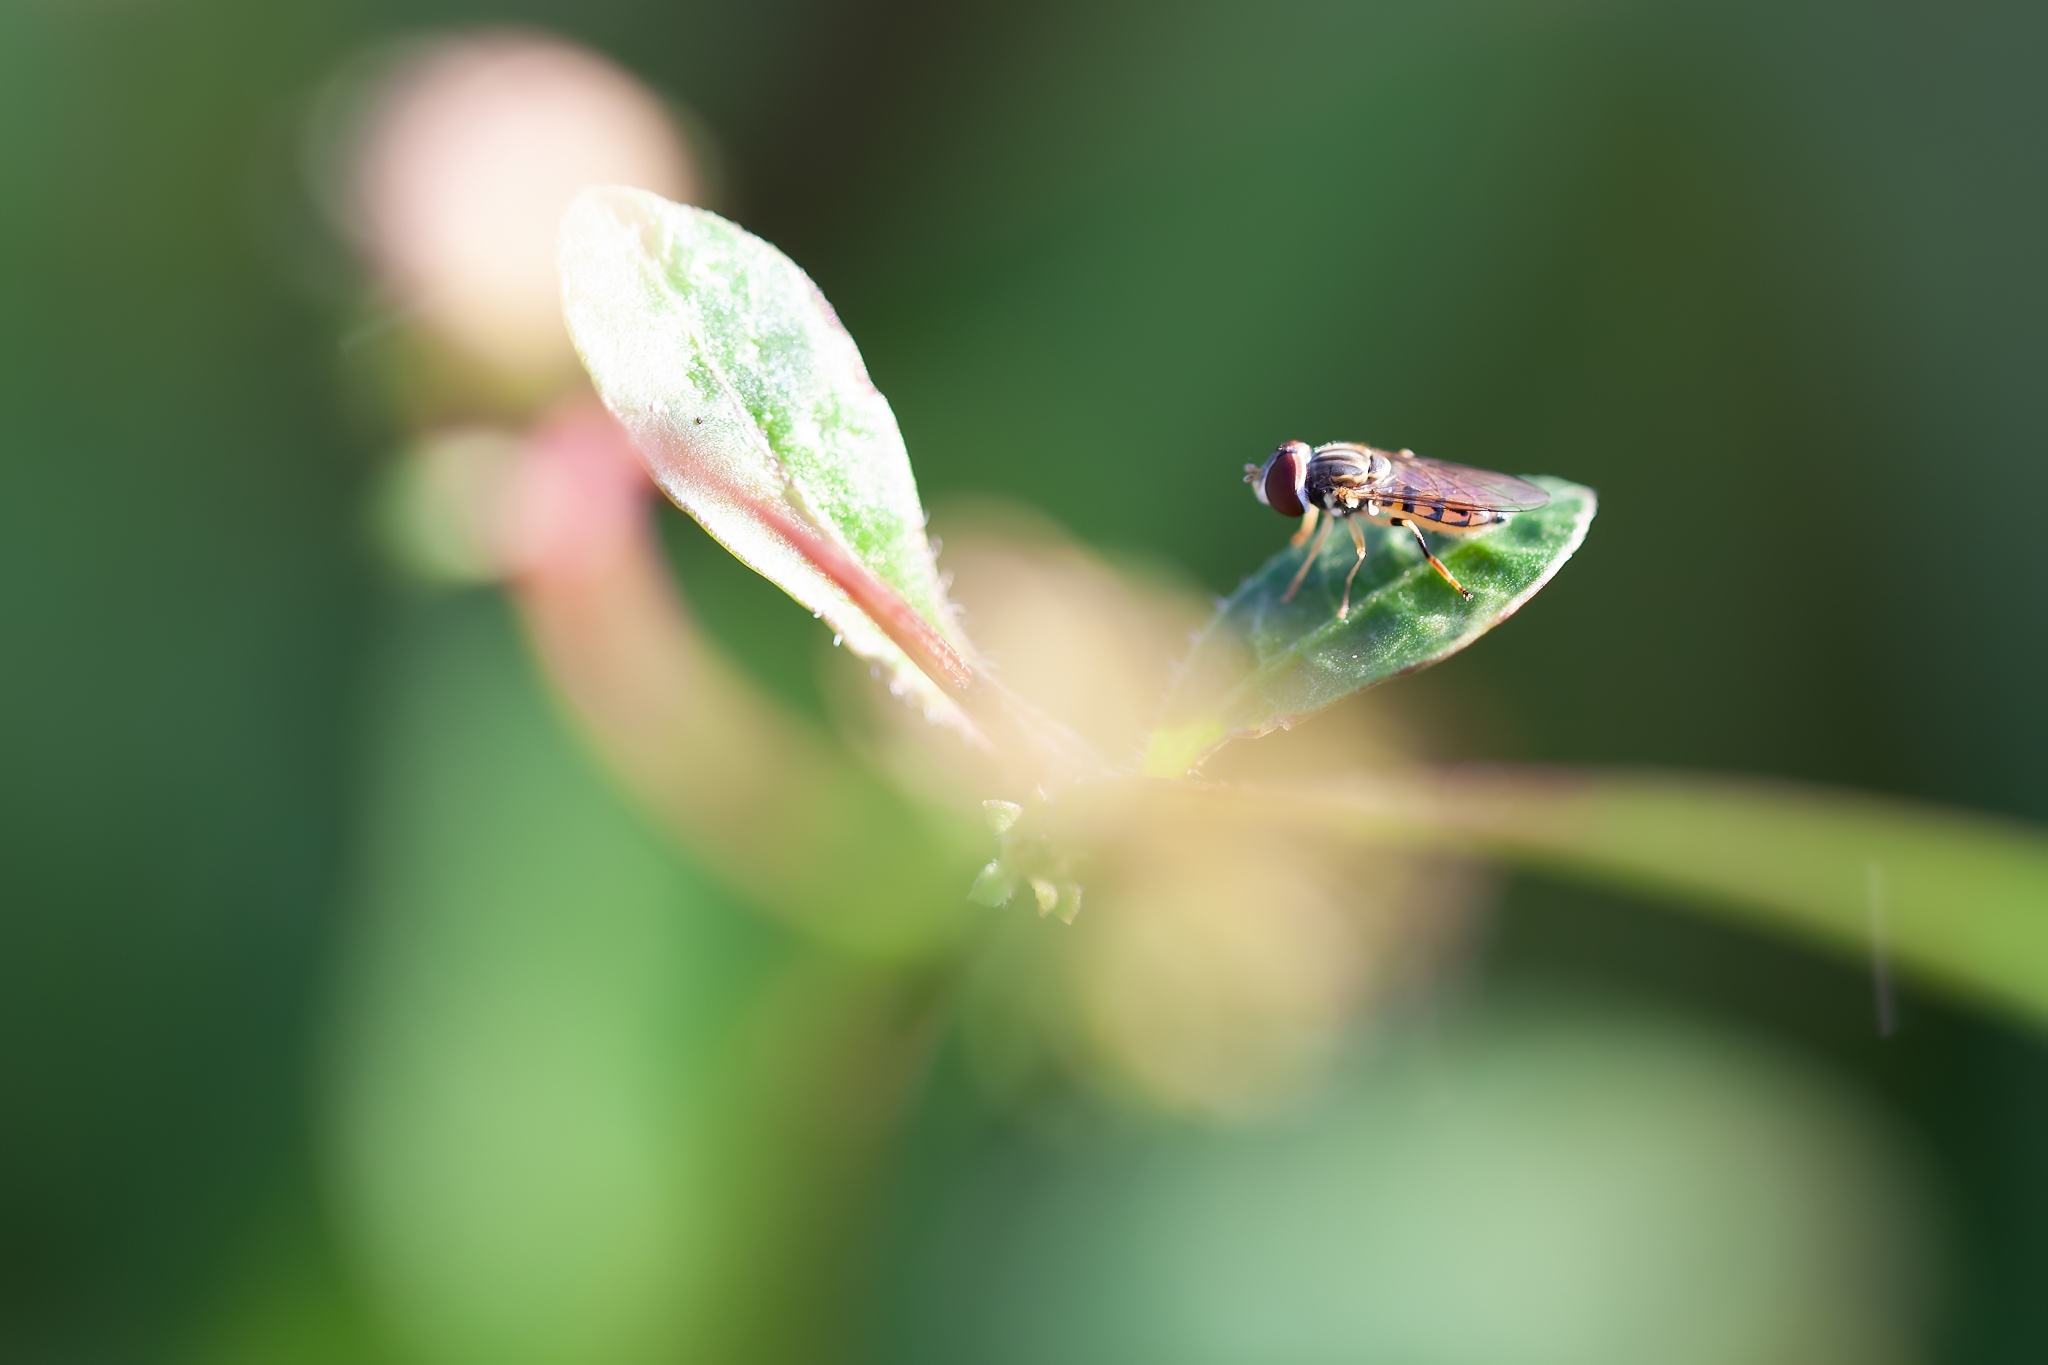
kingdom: Animalia
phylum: Arthropoda
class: Insecta
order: Diptera
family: Syrphidae
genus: Toxomerus
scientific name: Toxomerus boscii
